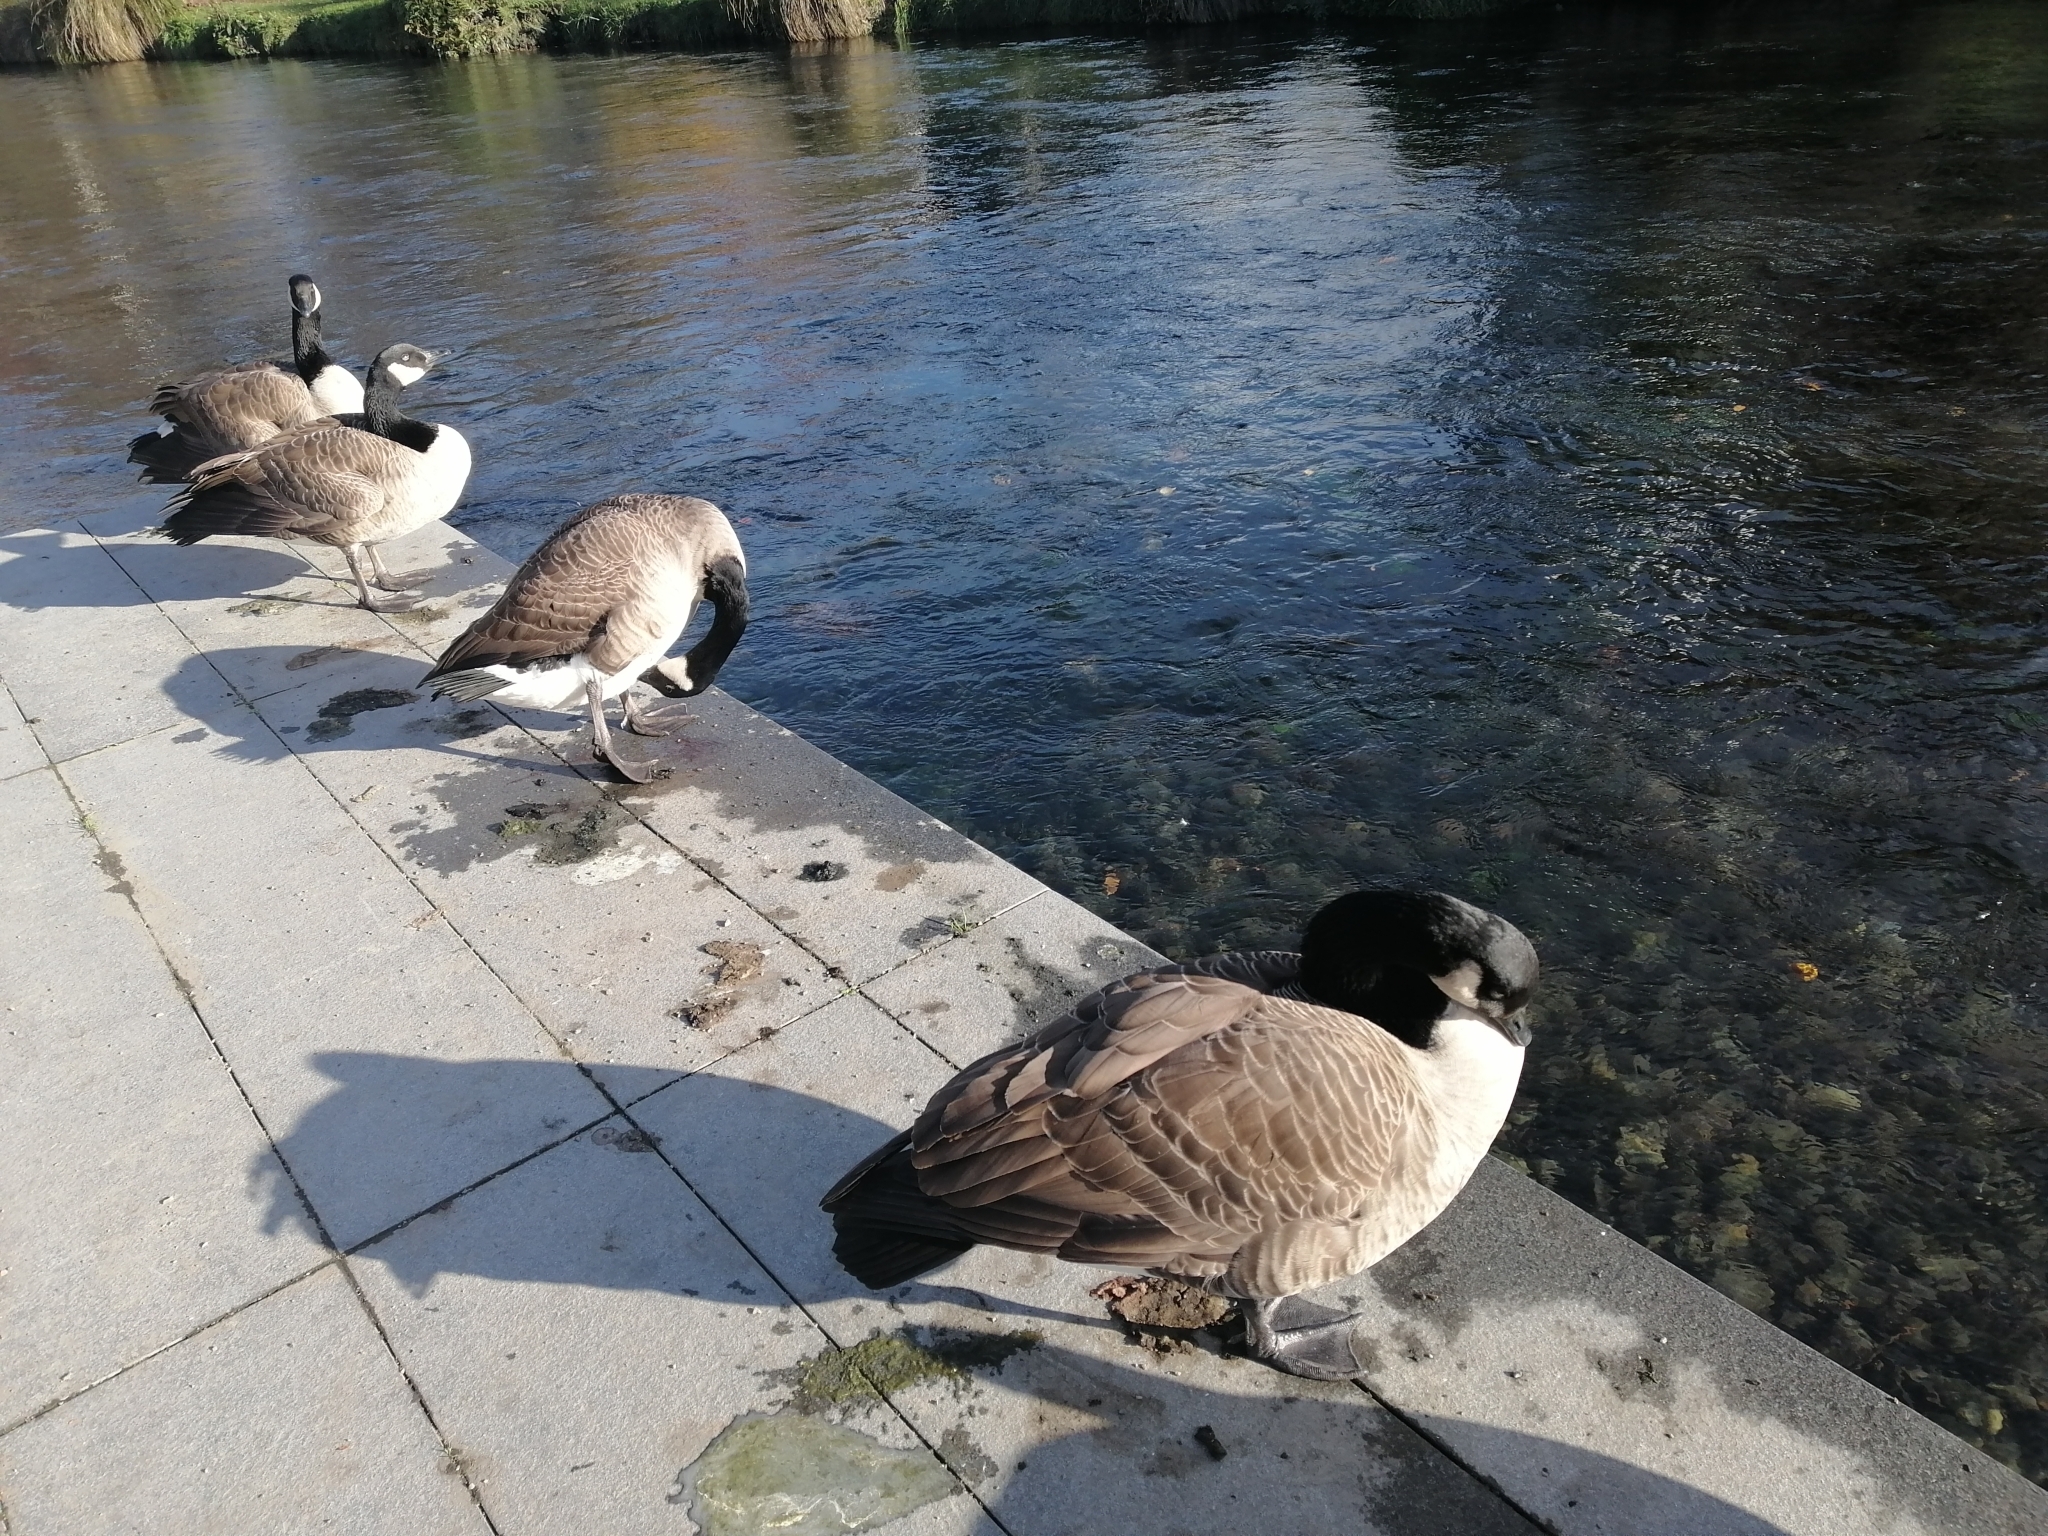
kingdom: Animalia
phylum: Chordata
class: Aves
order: Anseriformes
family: Anatidae
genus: Branta
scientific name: Branta canadensis
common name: Canada goose
